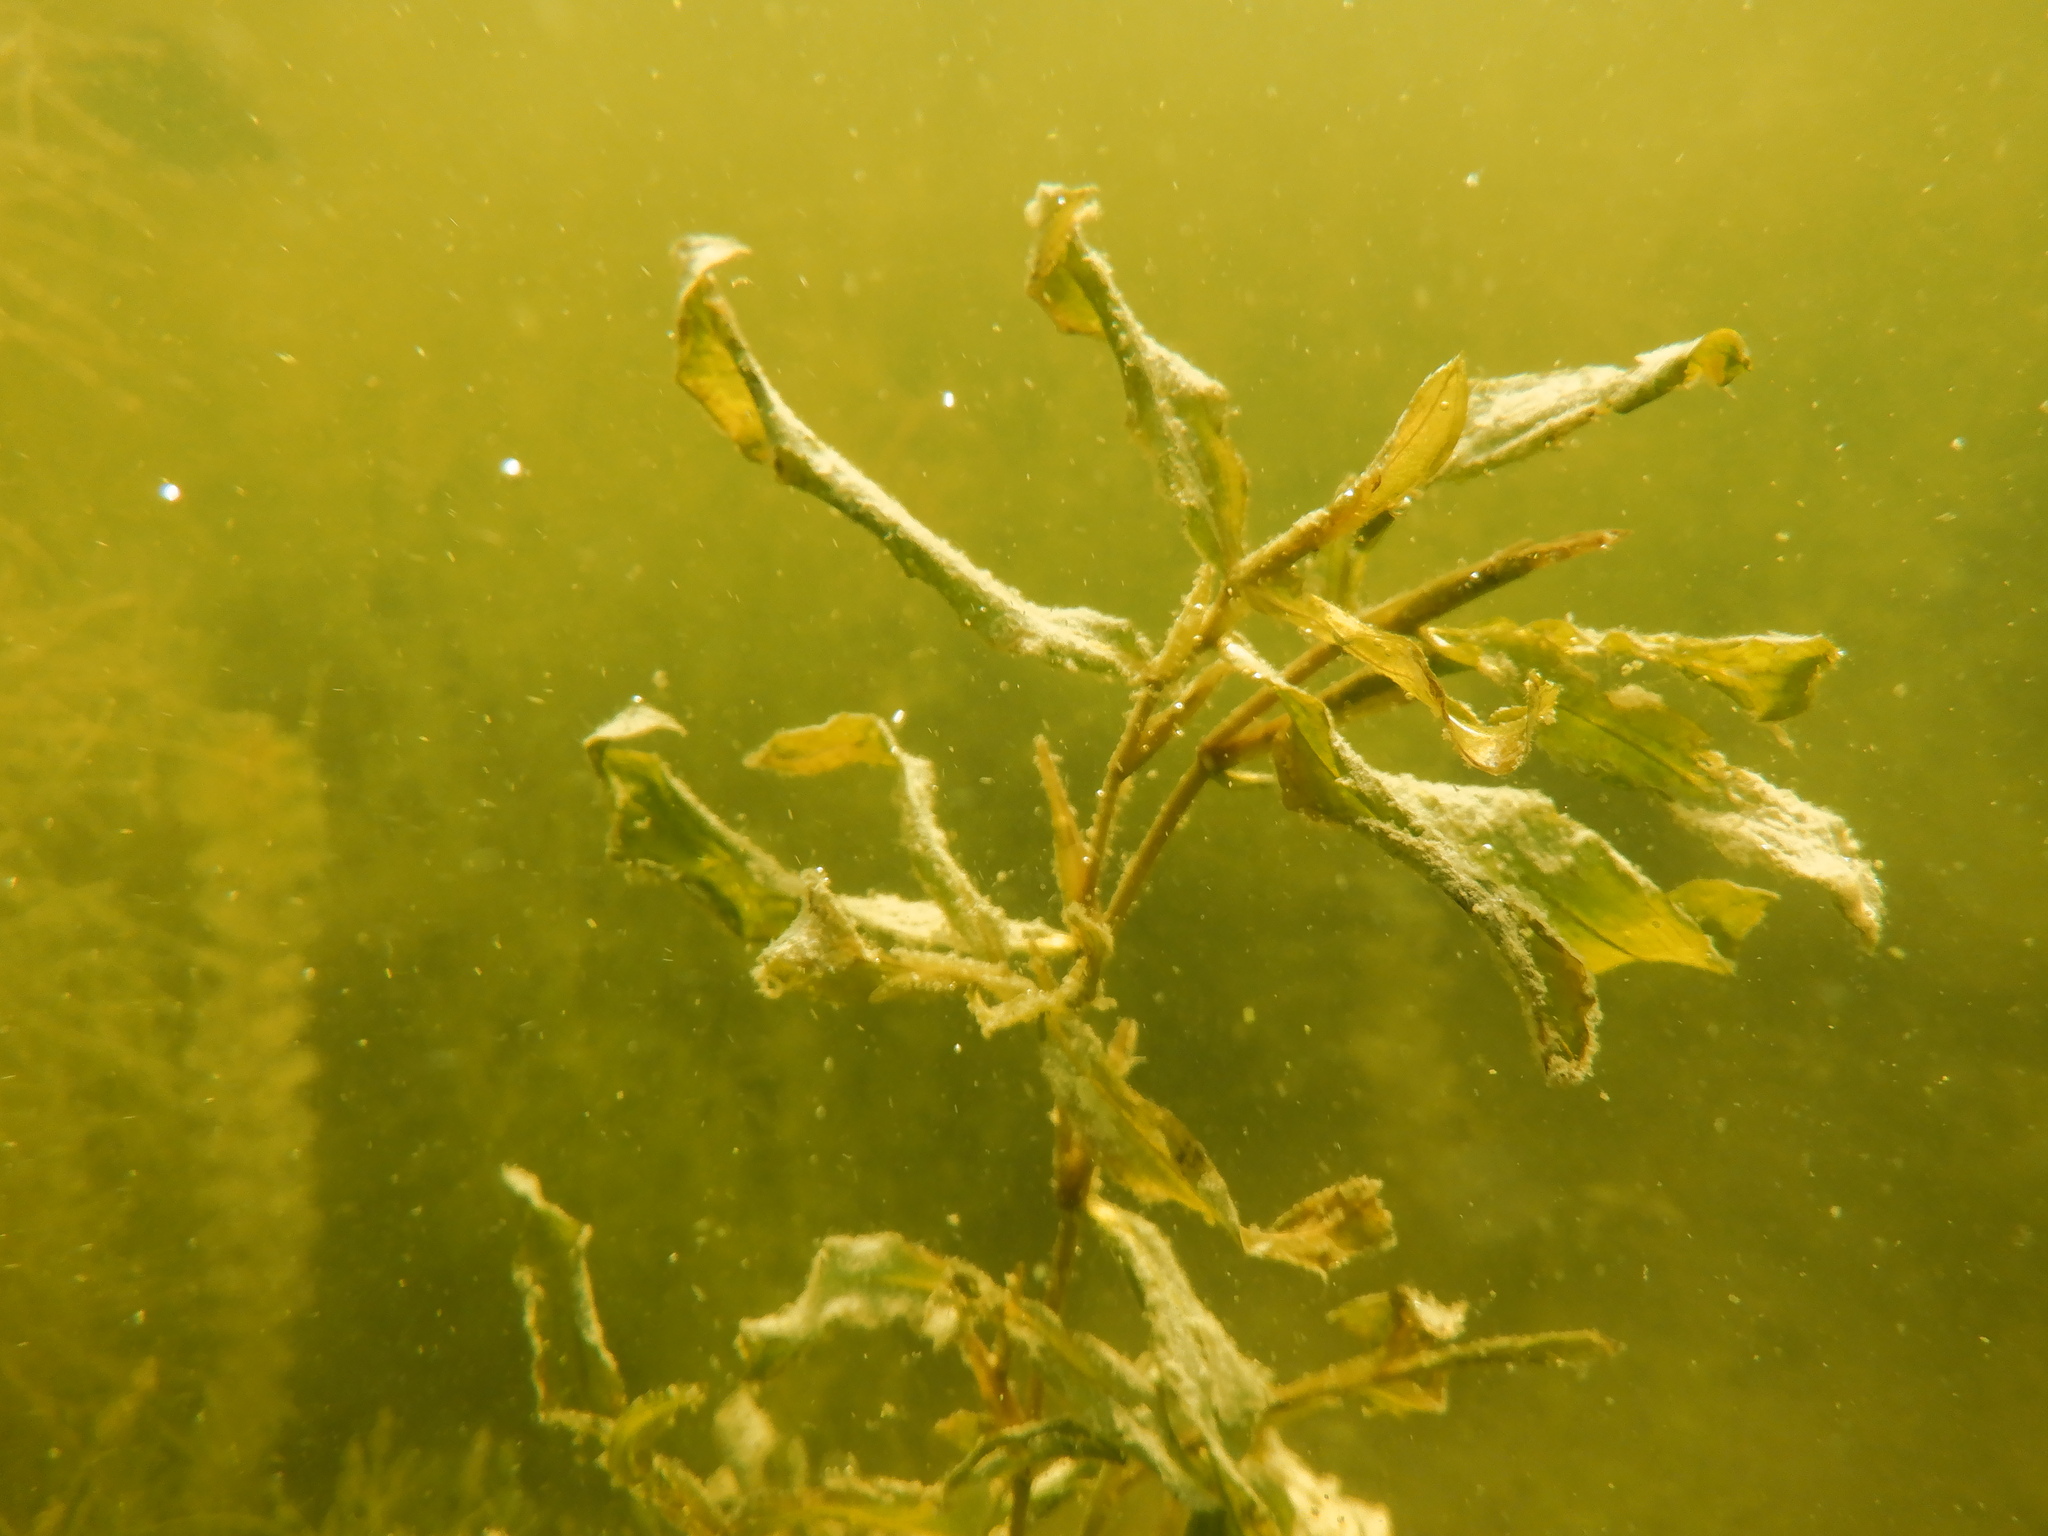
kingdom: Plantae
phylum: Tracheophyta
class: Liliopsida
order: Alismatales
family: Potamogetonaceae
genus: Potamogeton
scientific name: Potamogeton illinoensis
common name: Illinois pondweed
